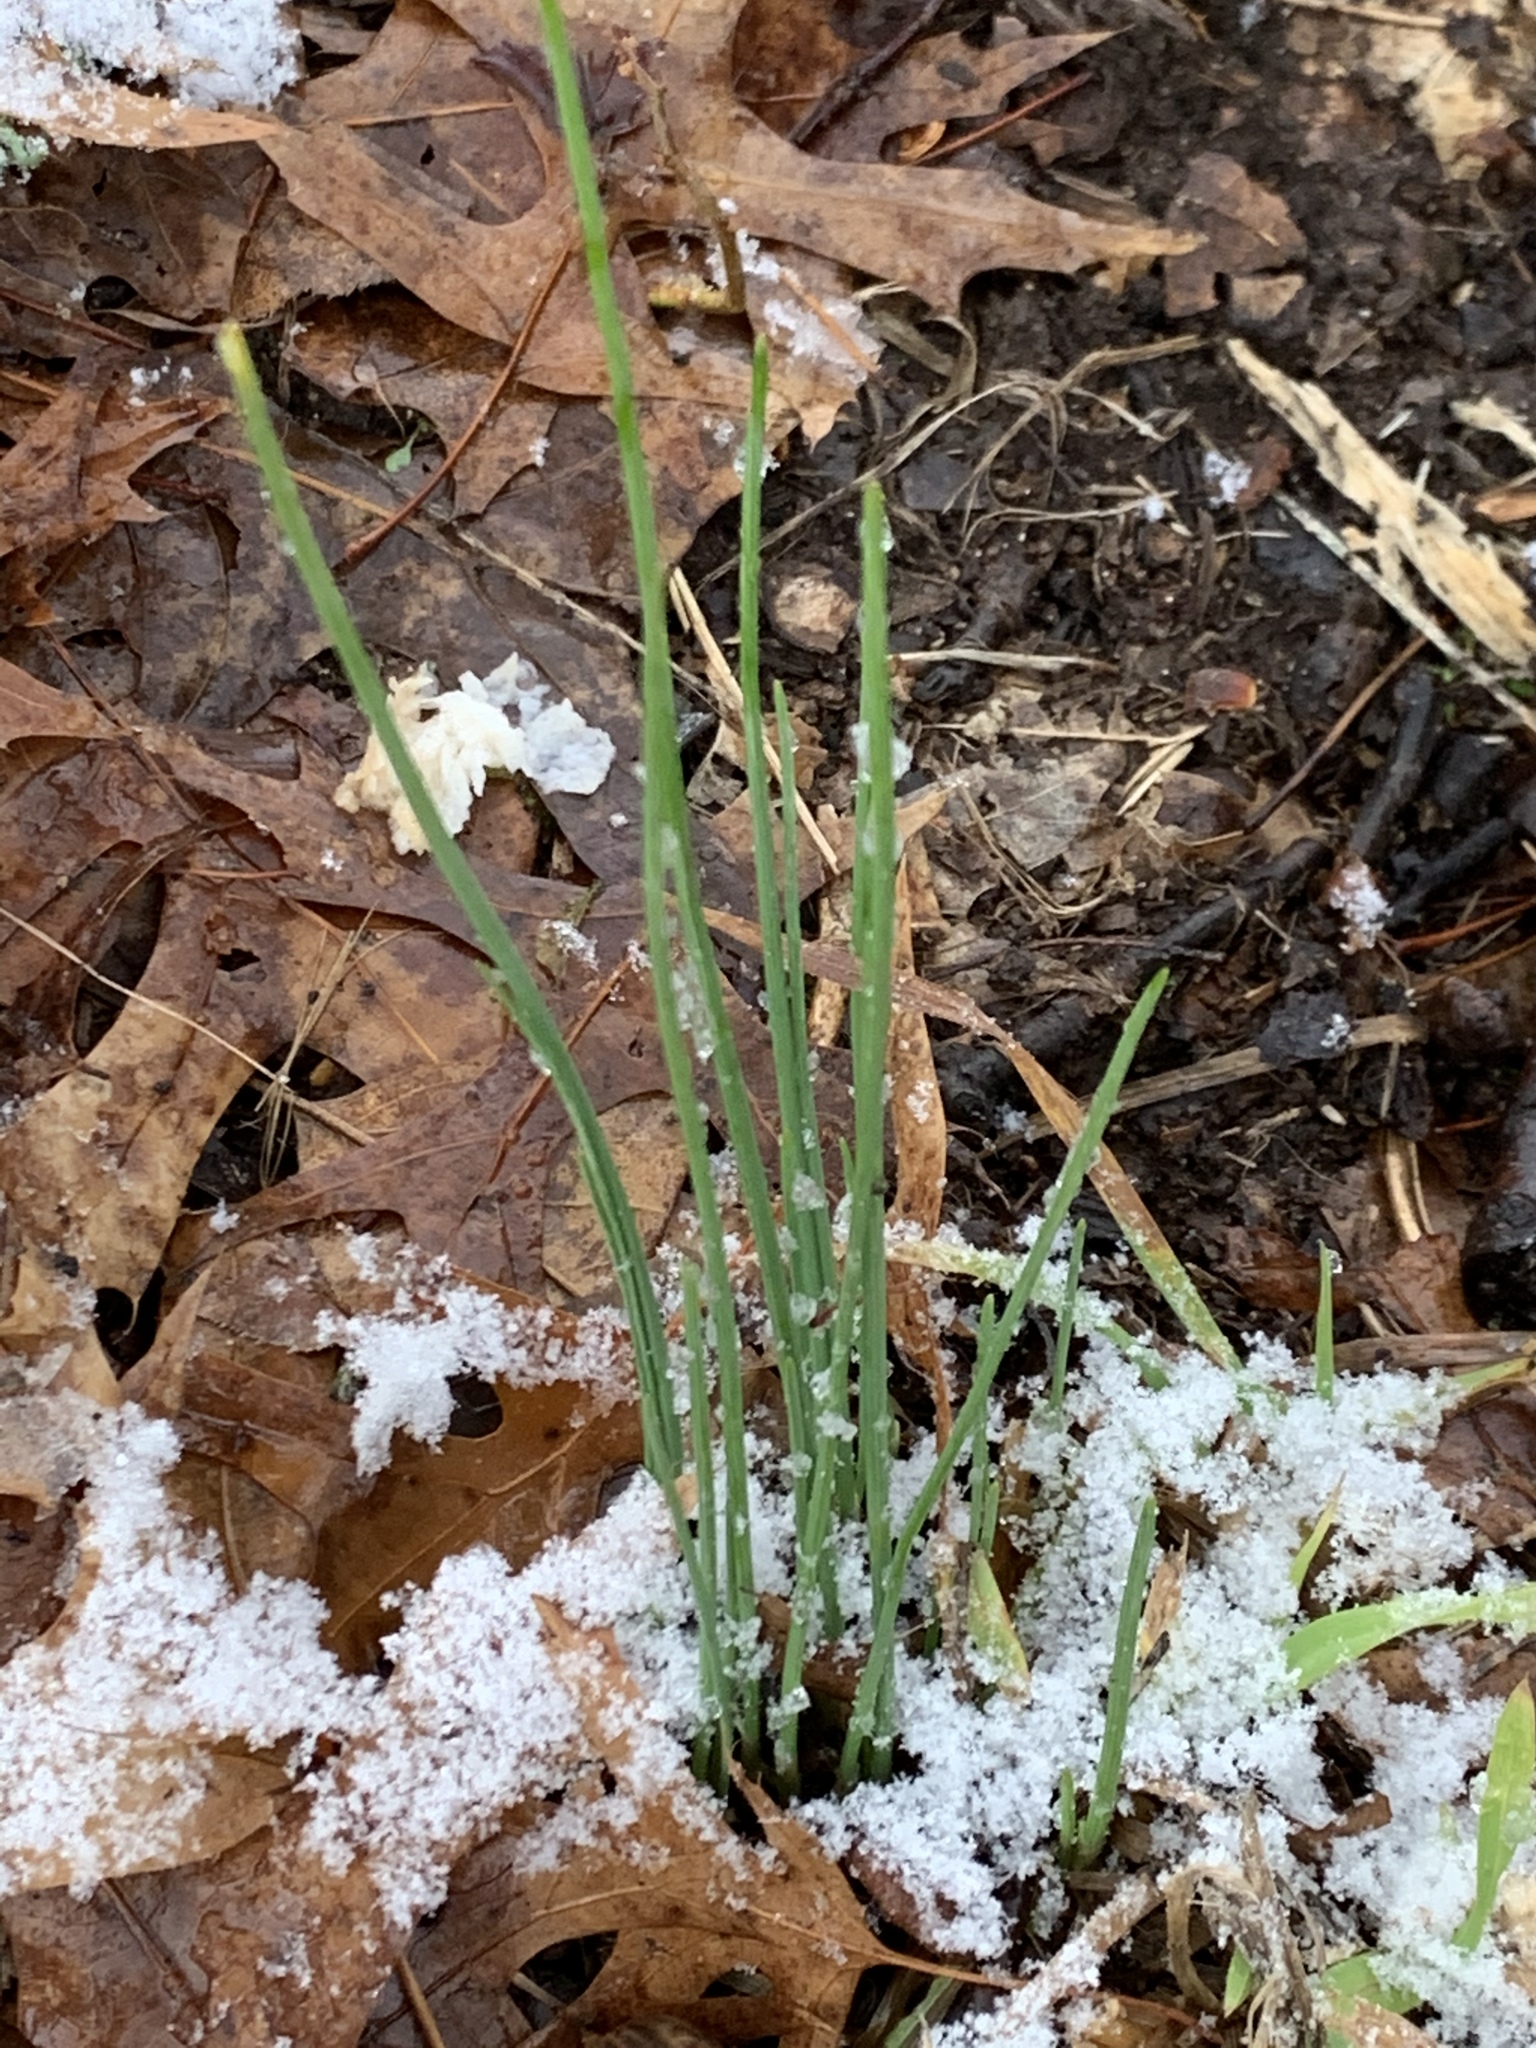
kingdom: Plantae
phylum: Tracheophyta
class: Liliopsida
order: Asparagales
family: Amaryllidaceae
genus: Allium
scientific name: Allium vineale
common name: Crow garlic
